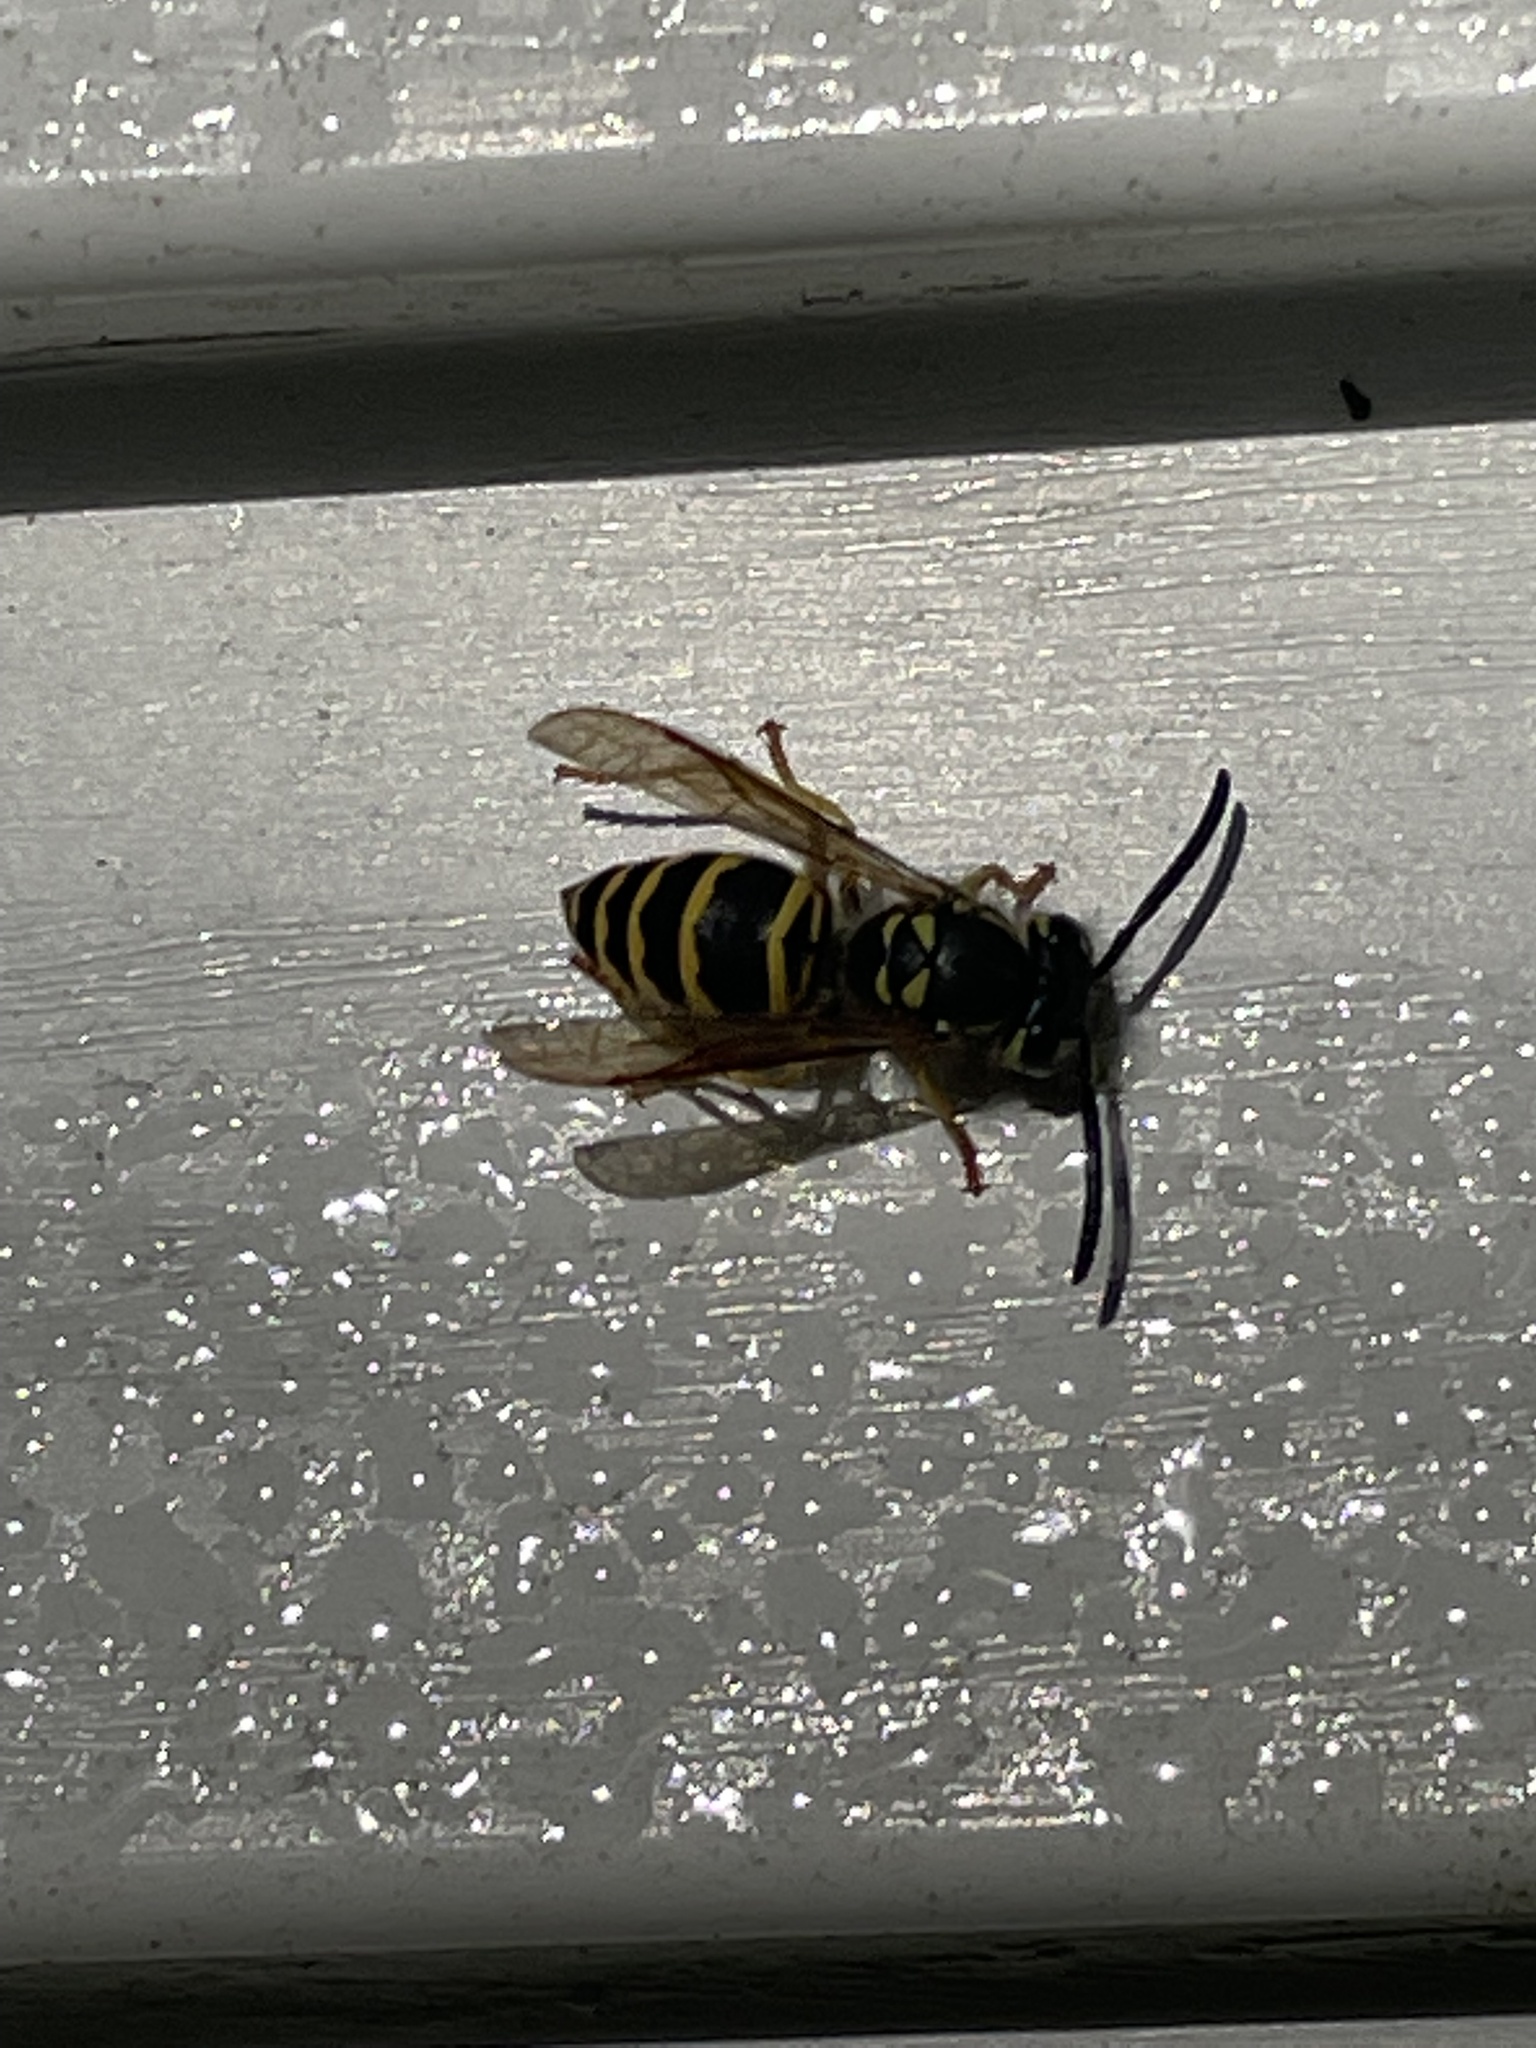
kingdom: Animalia
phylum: Arthropoda
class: Insecta
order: Hymenoptera
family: Vespidae
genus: Vespula
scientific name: Vespula maculifrons
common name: Eastern yellowjacket
